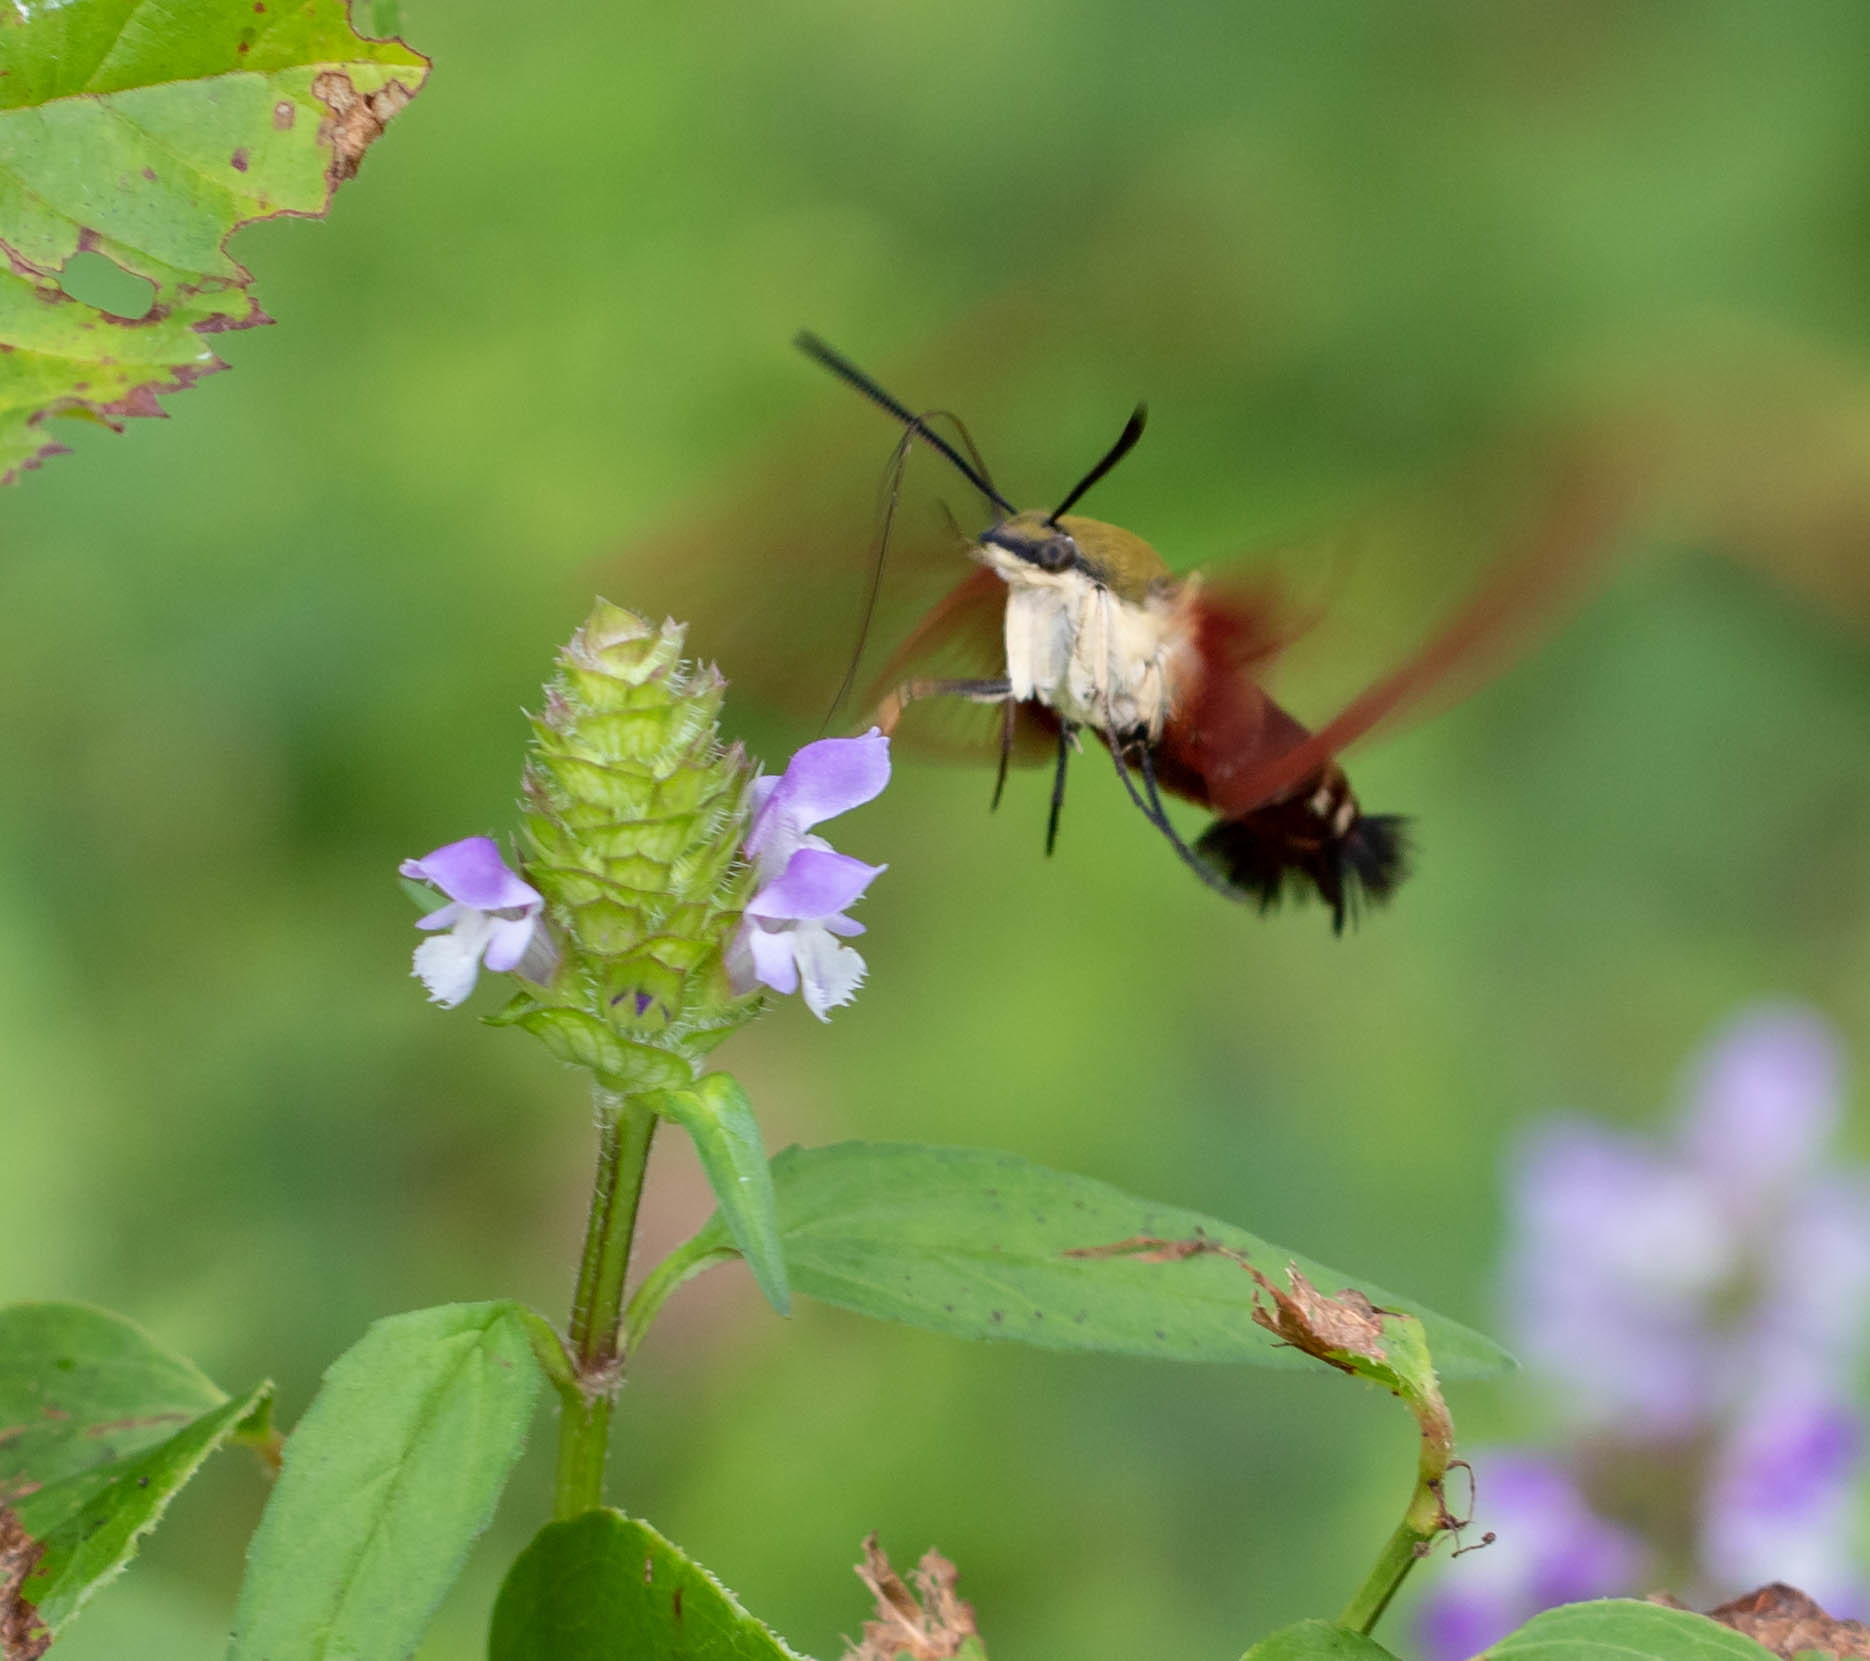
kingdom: Animalia
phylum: Arthropoda
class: Insecta
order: Lepidoptera
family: Sphingidae
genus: Hemaris
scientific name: Hemaris thysbe
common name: Common clear-wing
